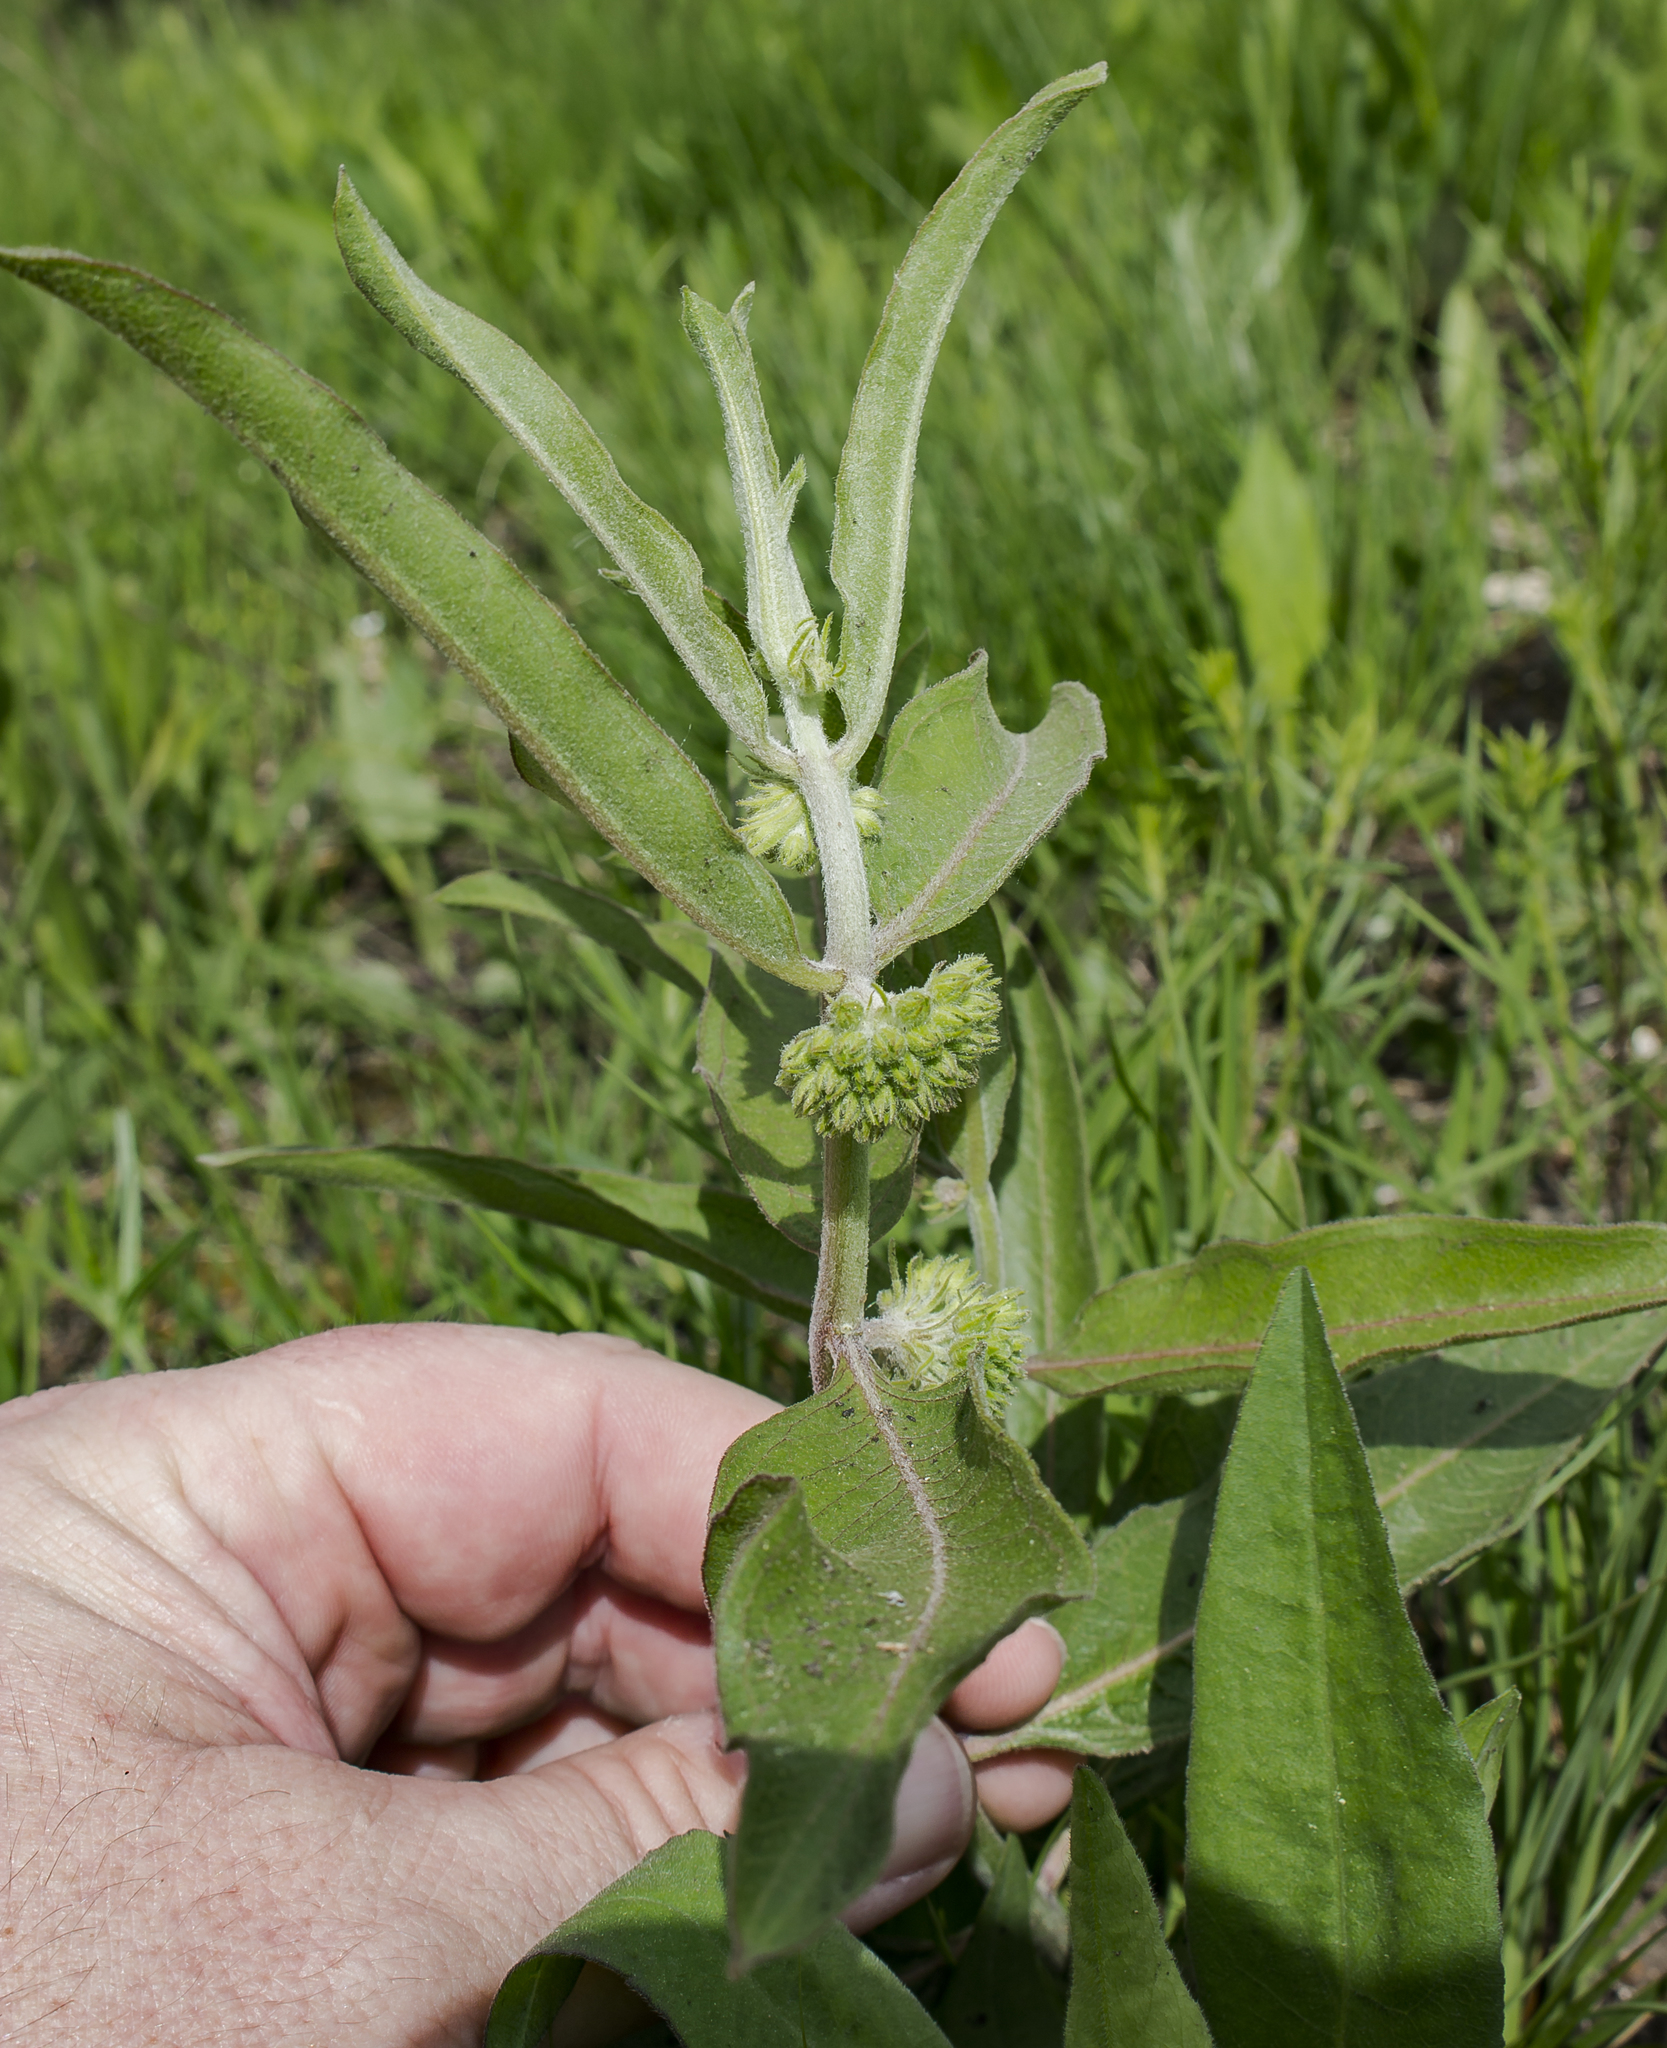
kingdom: Plantae
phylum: Tracheophyta
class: Magnoliopsida
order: Gentianales
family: Apocynaceae
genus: Asclepias
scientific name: Asclepias viridiflora
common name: Green comet milkweed
